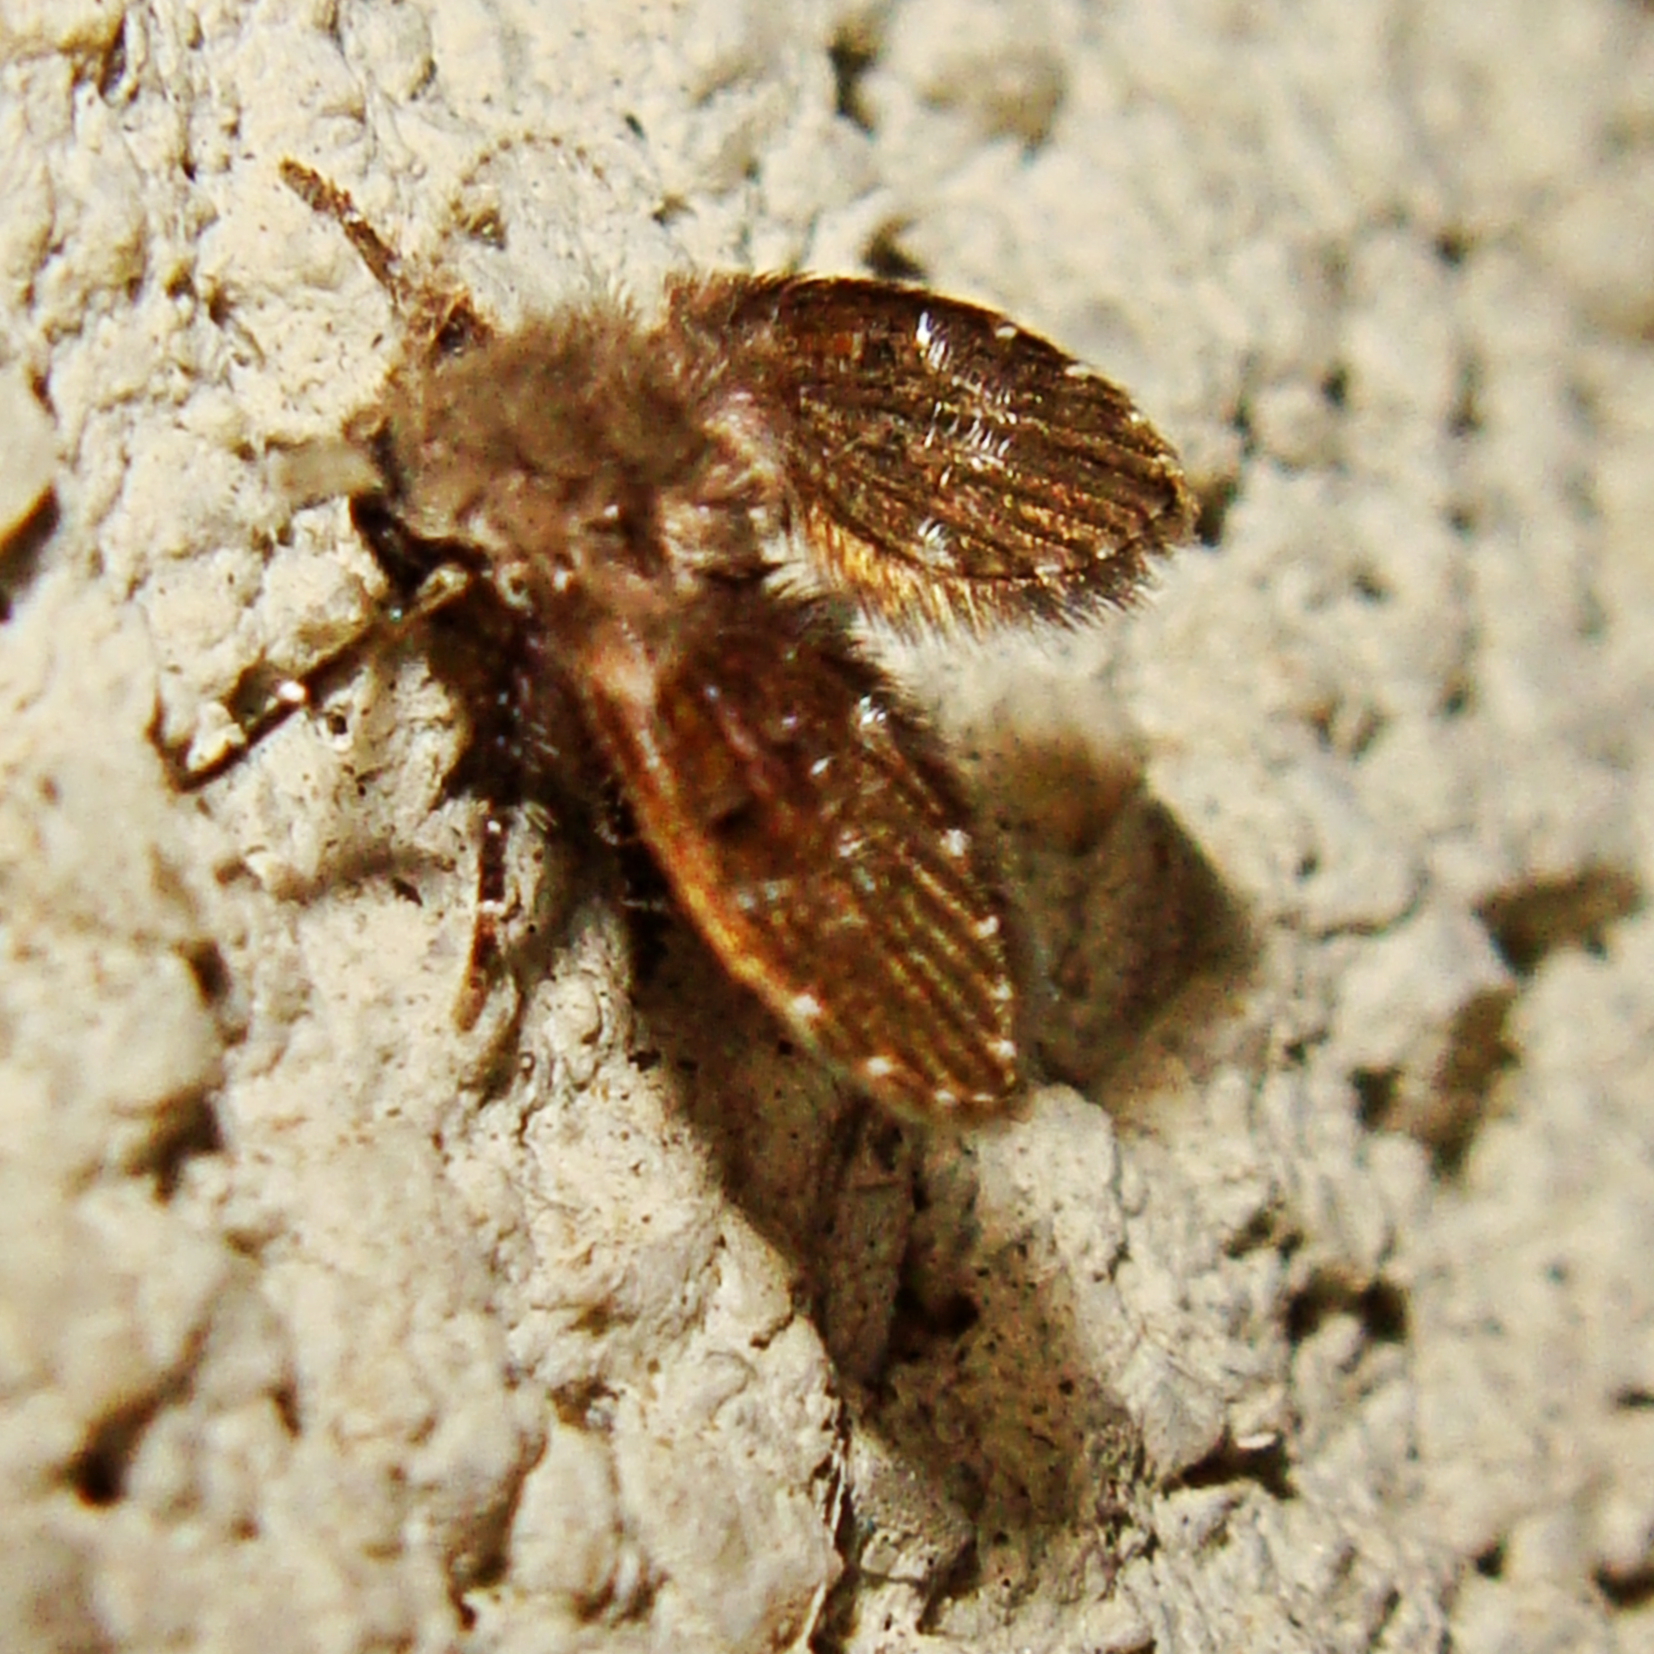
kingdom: Animalia
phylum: Arthropoda
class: Insecta
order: Diptera
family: Psychodidae
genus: Clogmia
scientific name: Clogmia albipunctatus
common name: White-spotted moth fly
